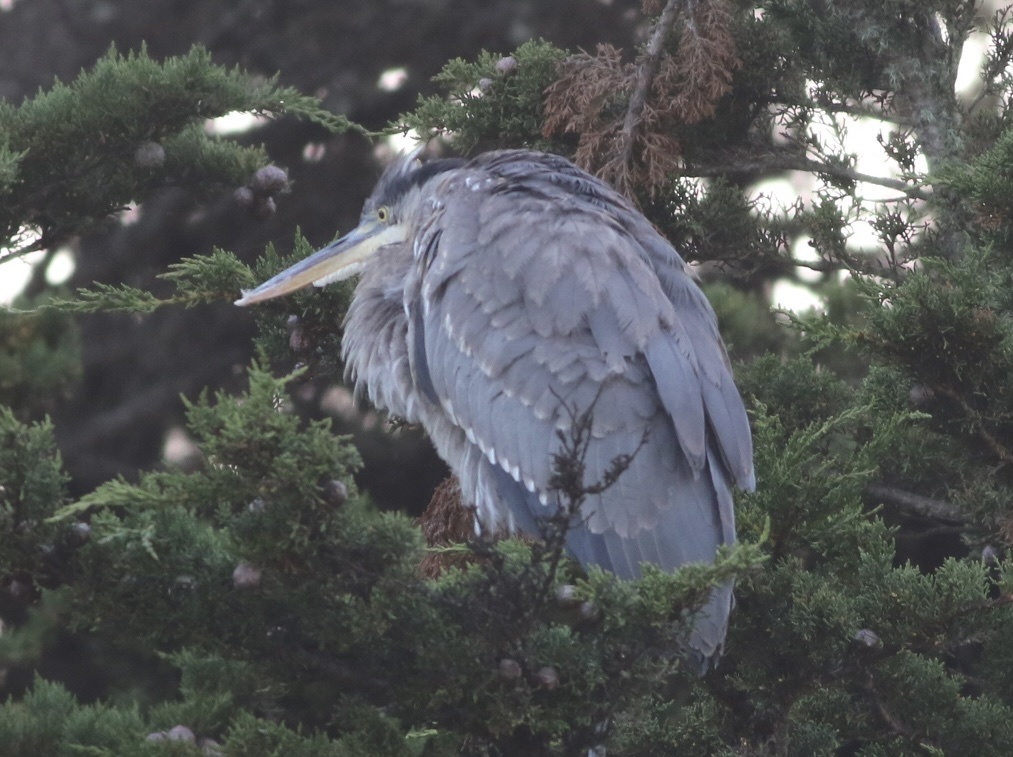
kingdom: Animalia
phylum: Chordata
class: Aves
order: Pelecaniformes
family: Ardeidae
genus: Ardea
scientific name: Ardea herodias
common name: Great blue heron
